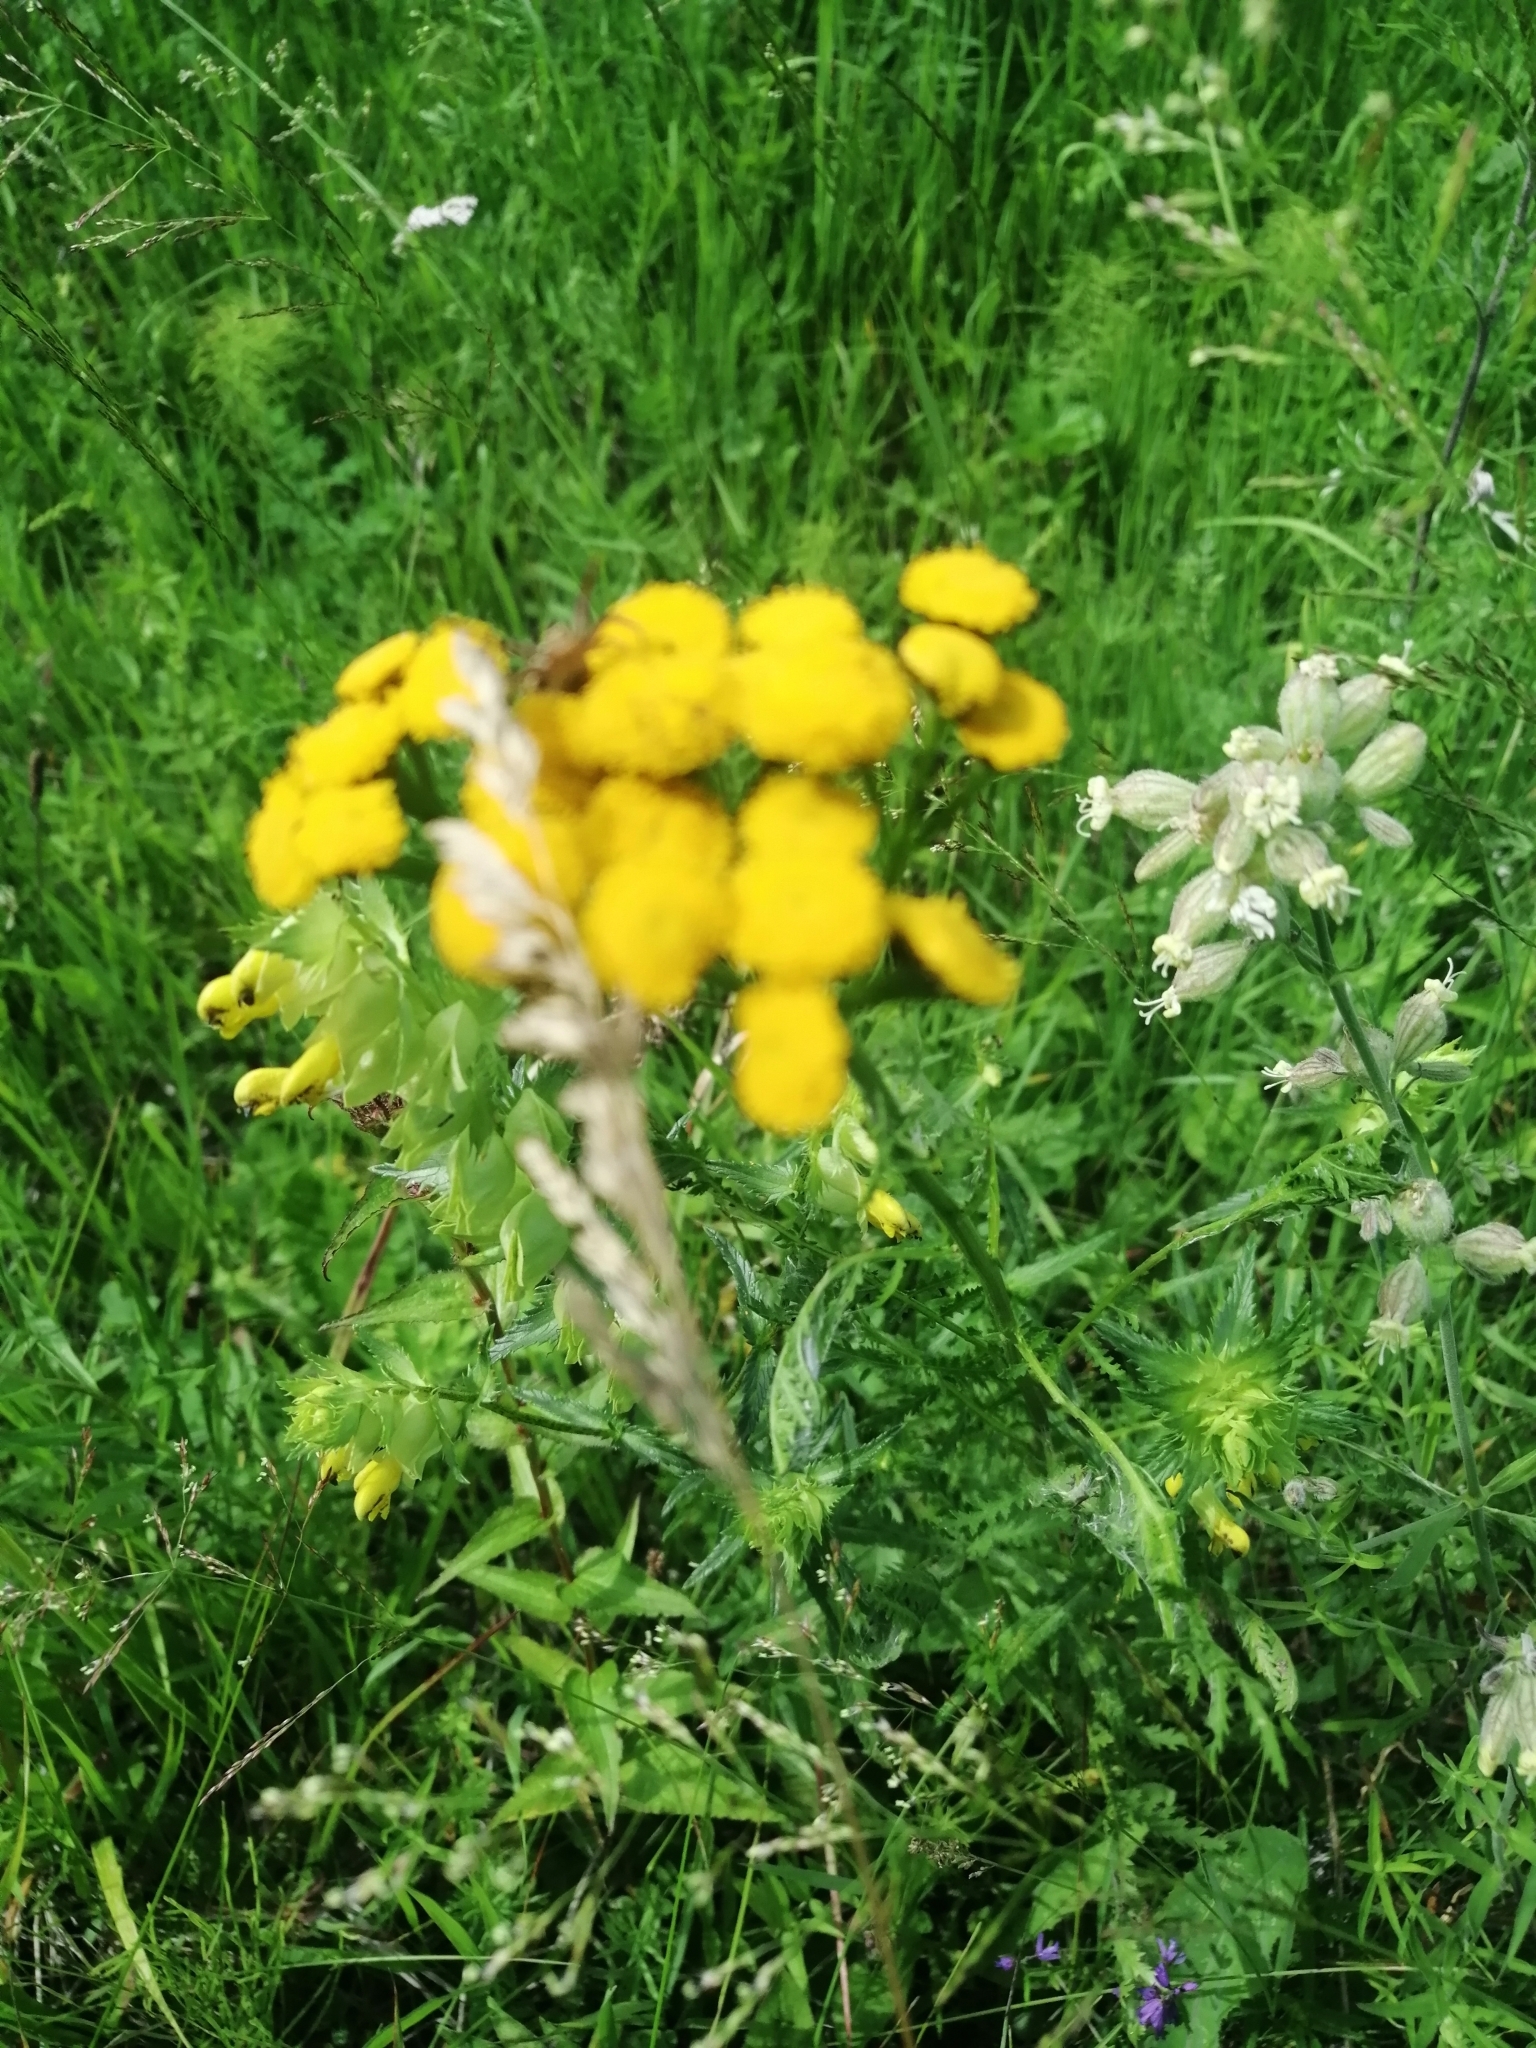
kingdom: Plantae
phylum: Tracheophyta
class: Magnoliopsida
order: Asterales
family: Asteraceae
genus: Tanacetum
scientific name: Tanacetum vulgare
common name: Common tansy
